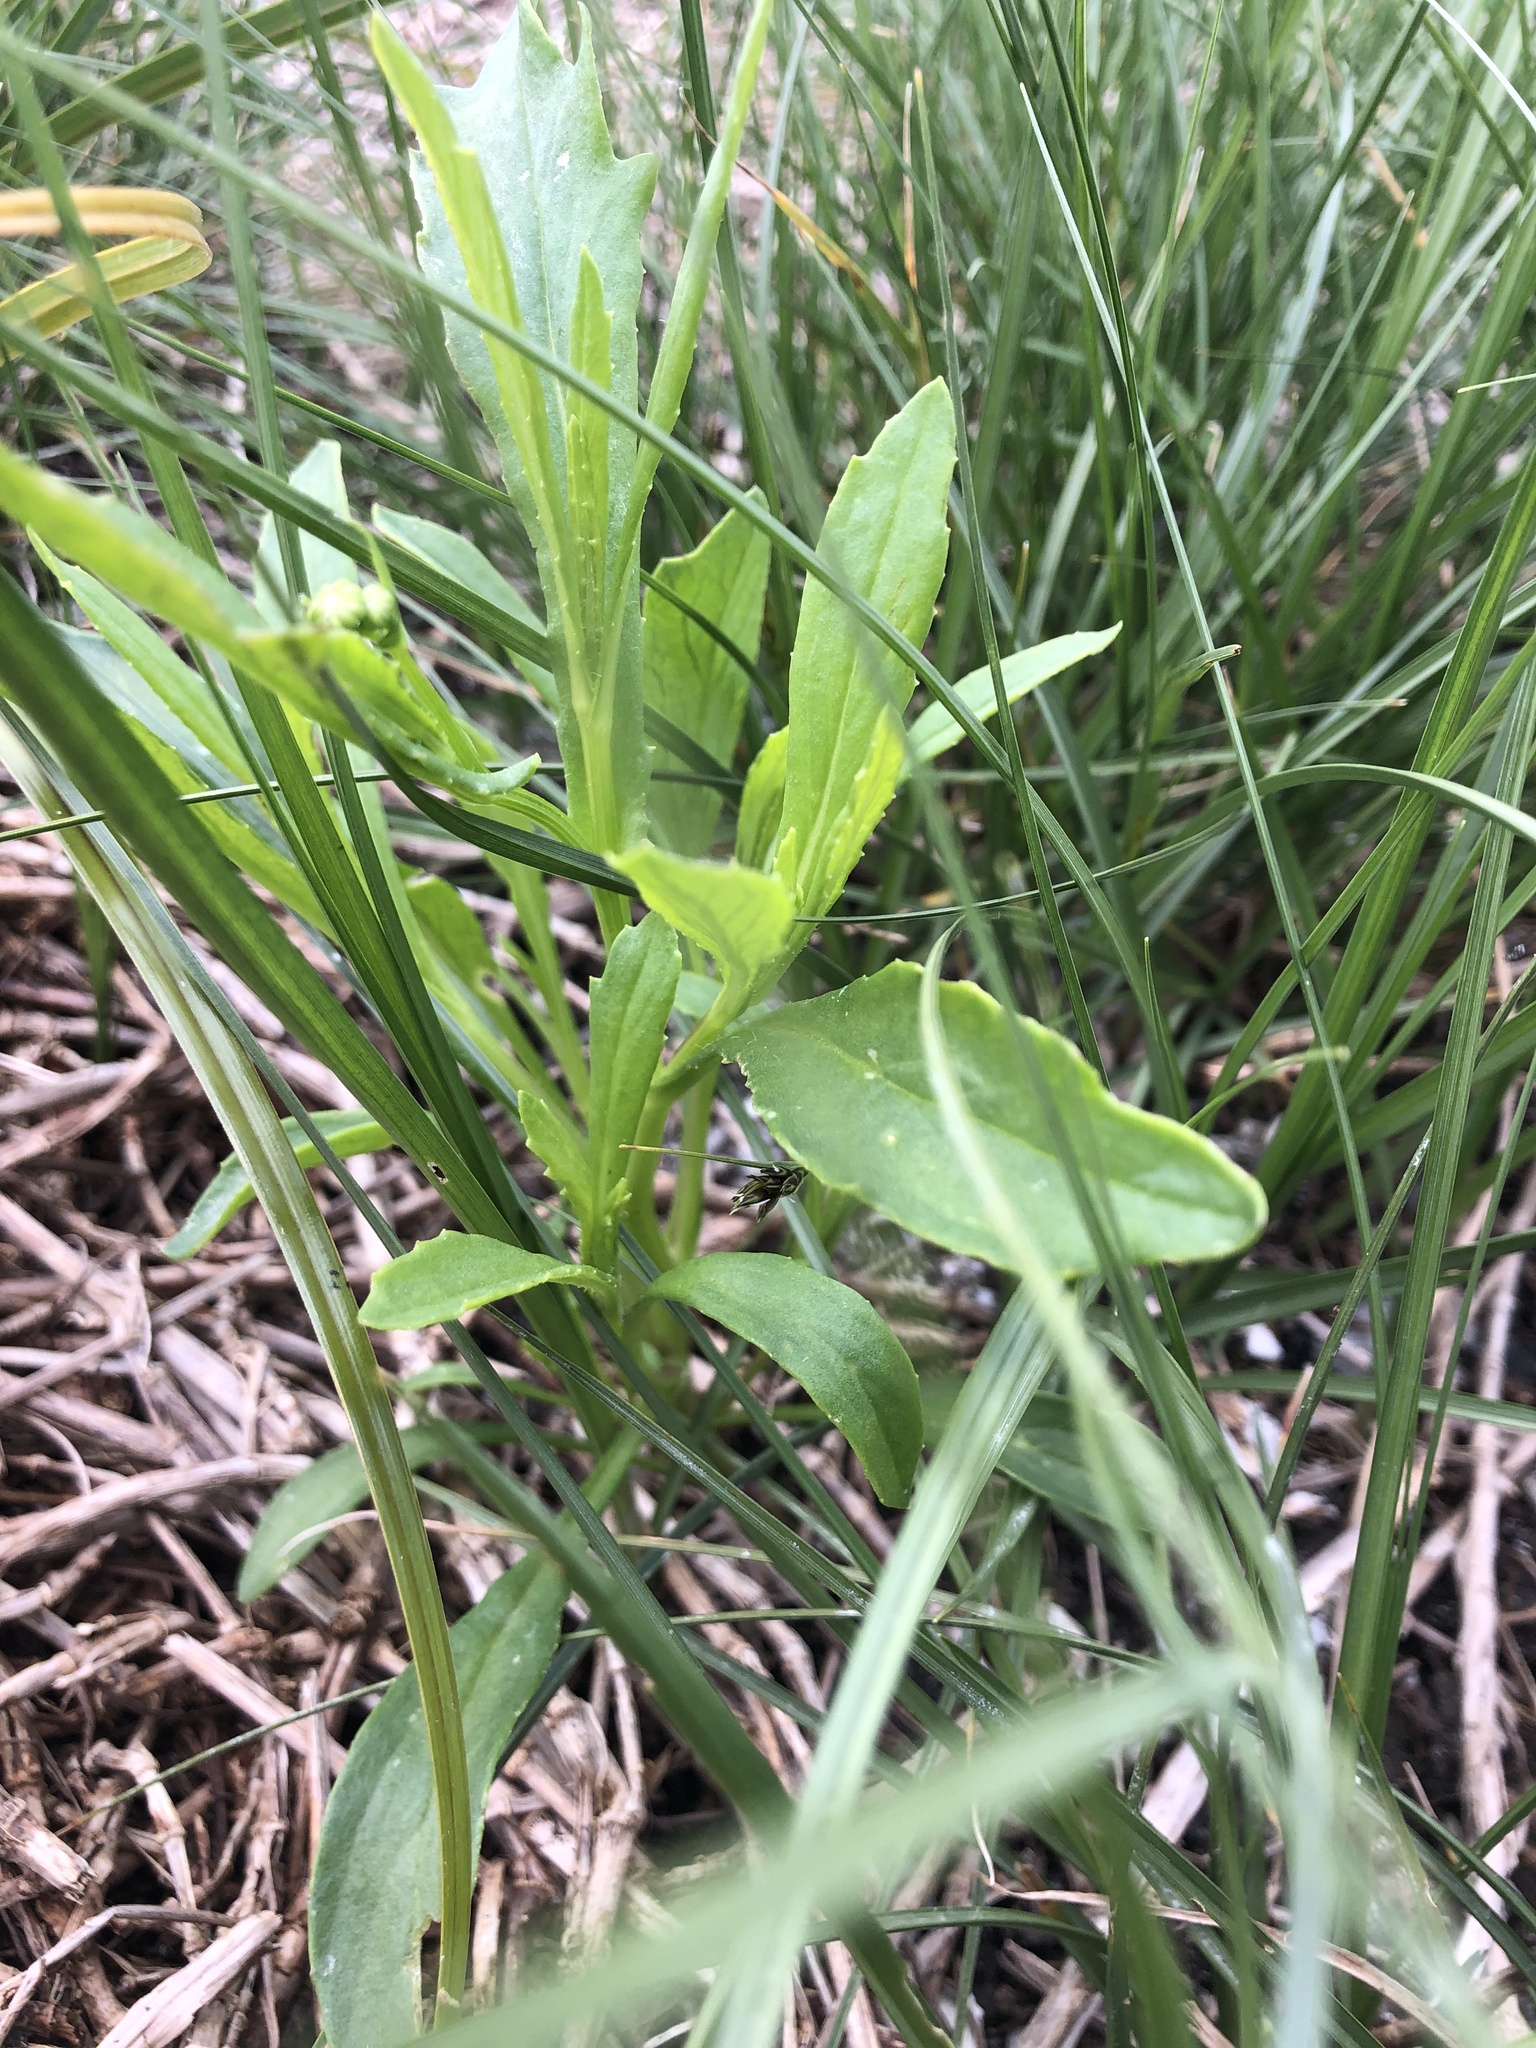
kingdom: Plantae
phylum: Tracheophyta
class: Magnoliopsida
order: Asterales
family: Asteraceae
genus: Senecio
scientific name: Senecio skirrhodon
